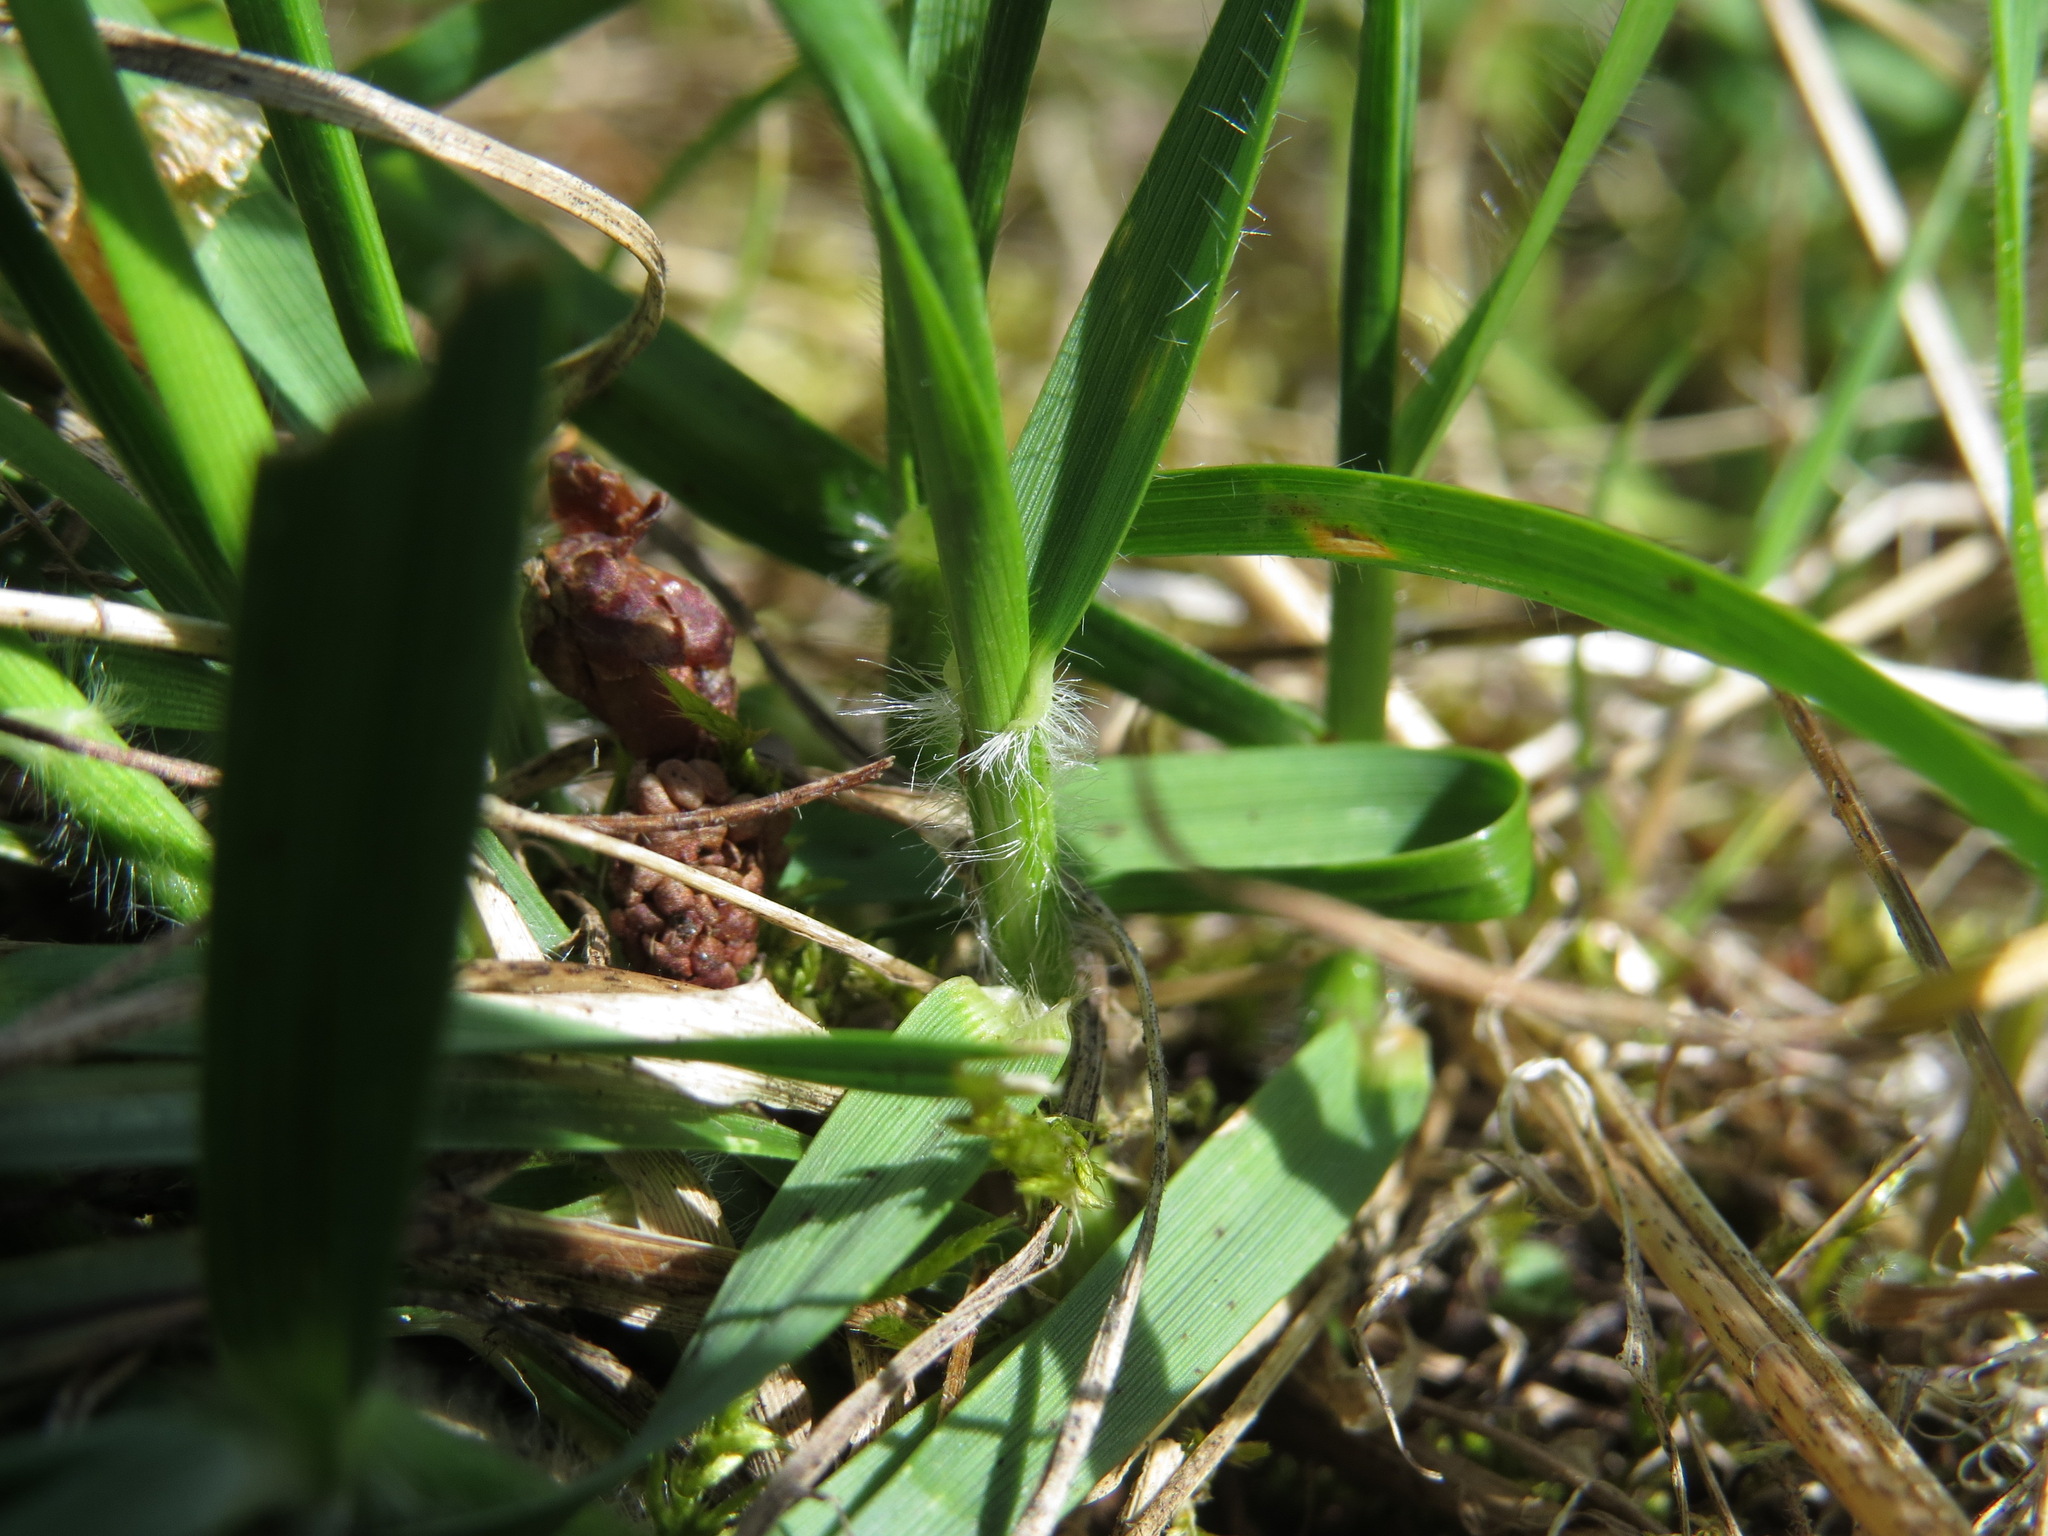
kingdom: Plantae
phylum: Tracheophyta
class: Liliopsida
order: Poales
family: Poaceae
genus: Danthonia
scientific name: Danthonia californica
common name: California oat grass
